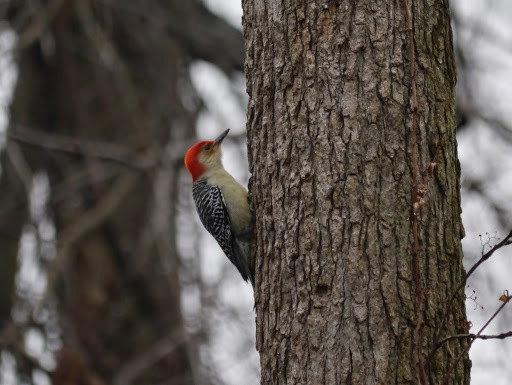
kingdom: Animalia
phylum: Chordata
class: Aves
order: Piciformes
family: Picidae
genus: Melanerpes
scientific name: Melanerpes carolinus
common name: Red-bellied woodpecker
